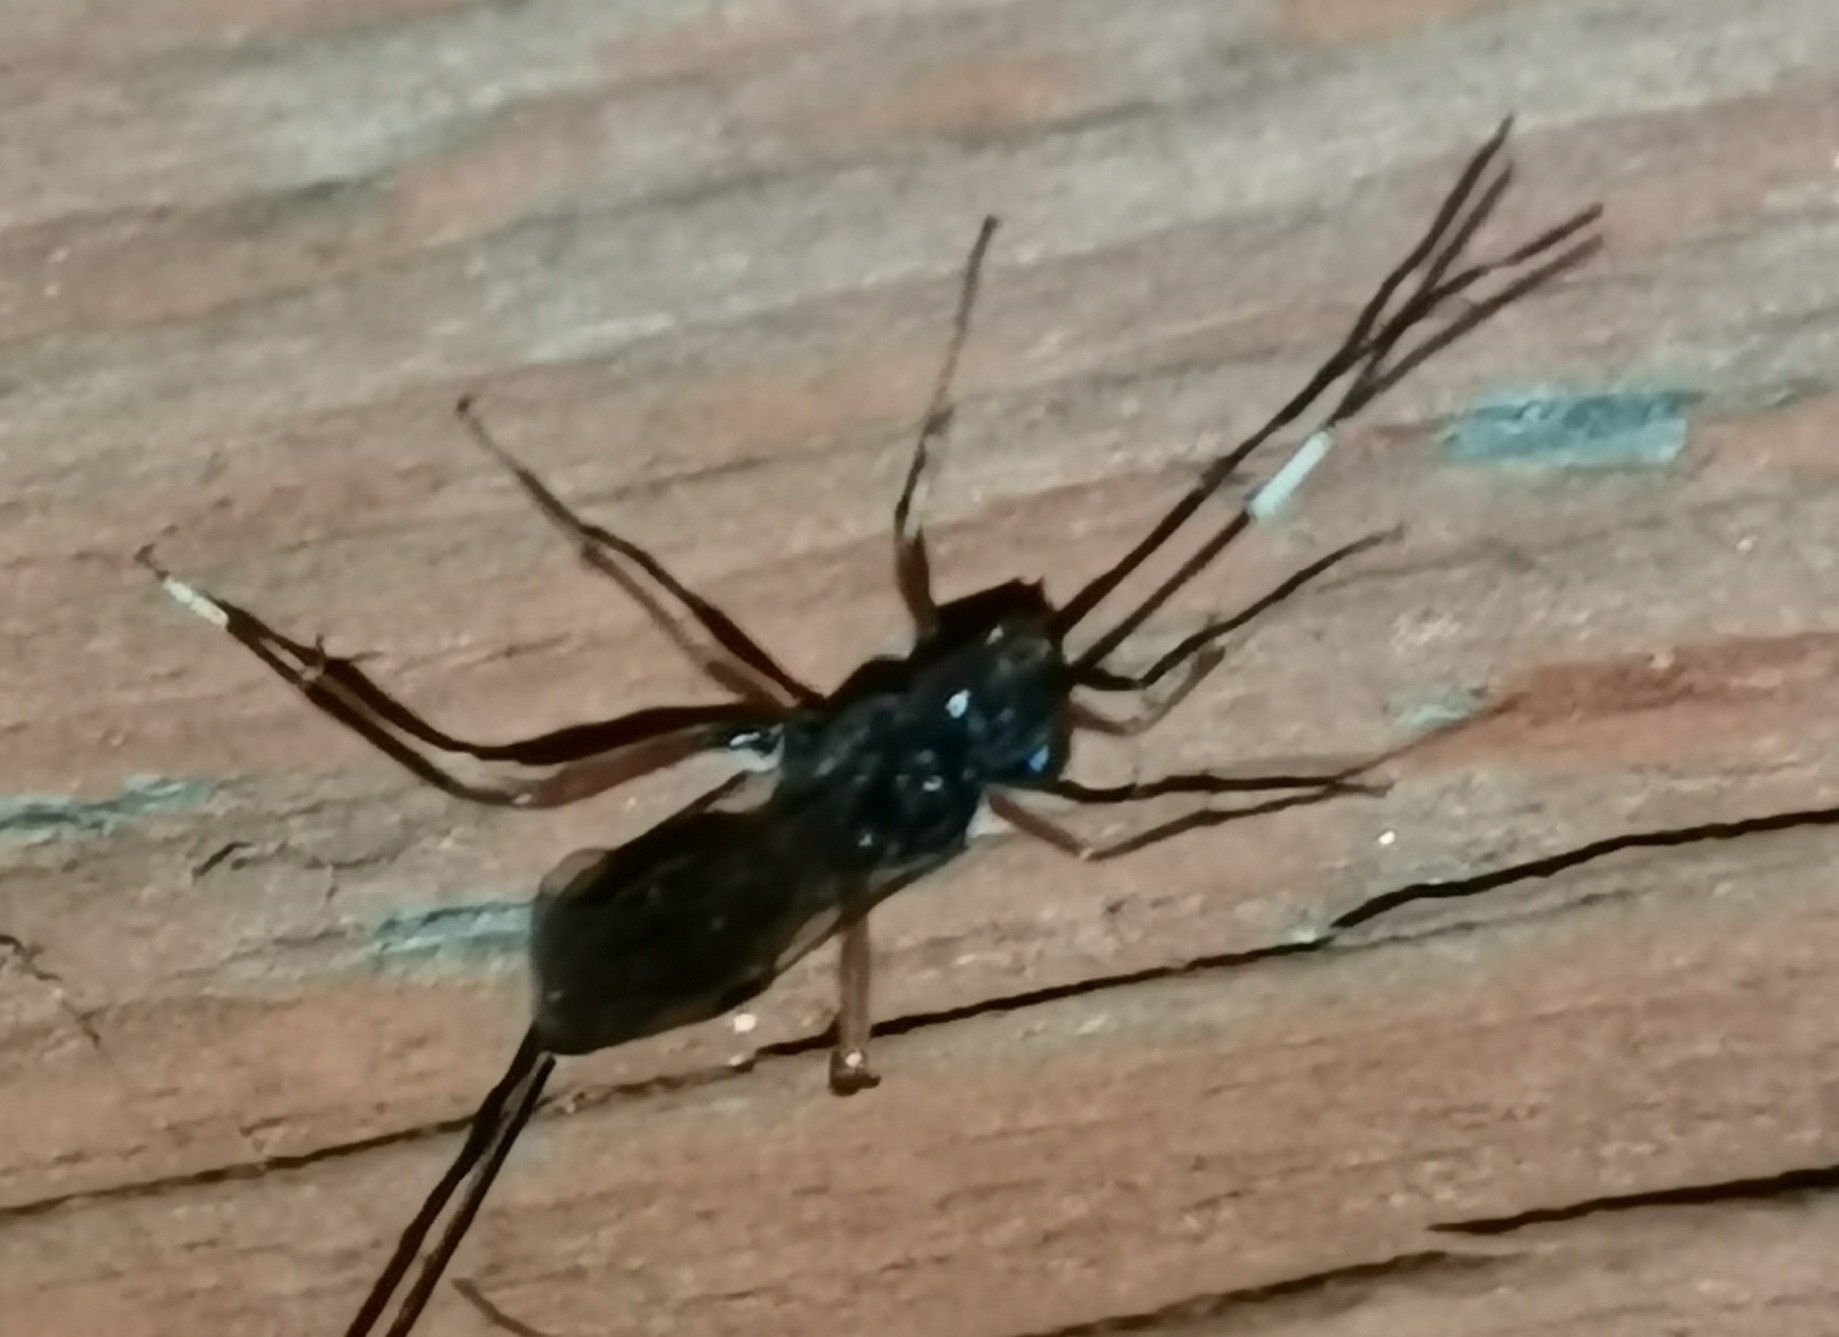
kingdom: Animalia
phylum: Arthropoda
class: Insecta
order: Hymenoptera
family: Ichneumonidae
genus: Stenarella
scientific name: Stenarella domator
